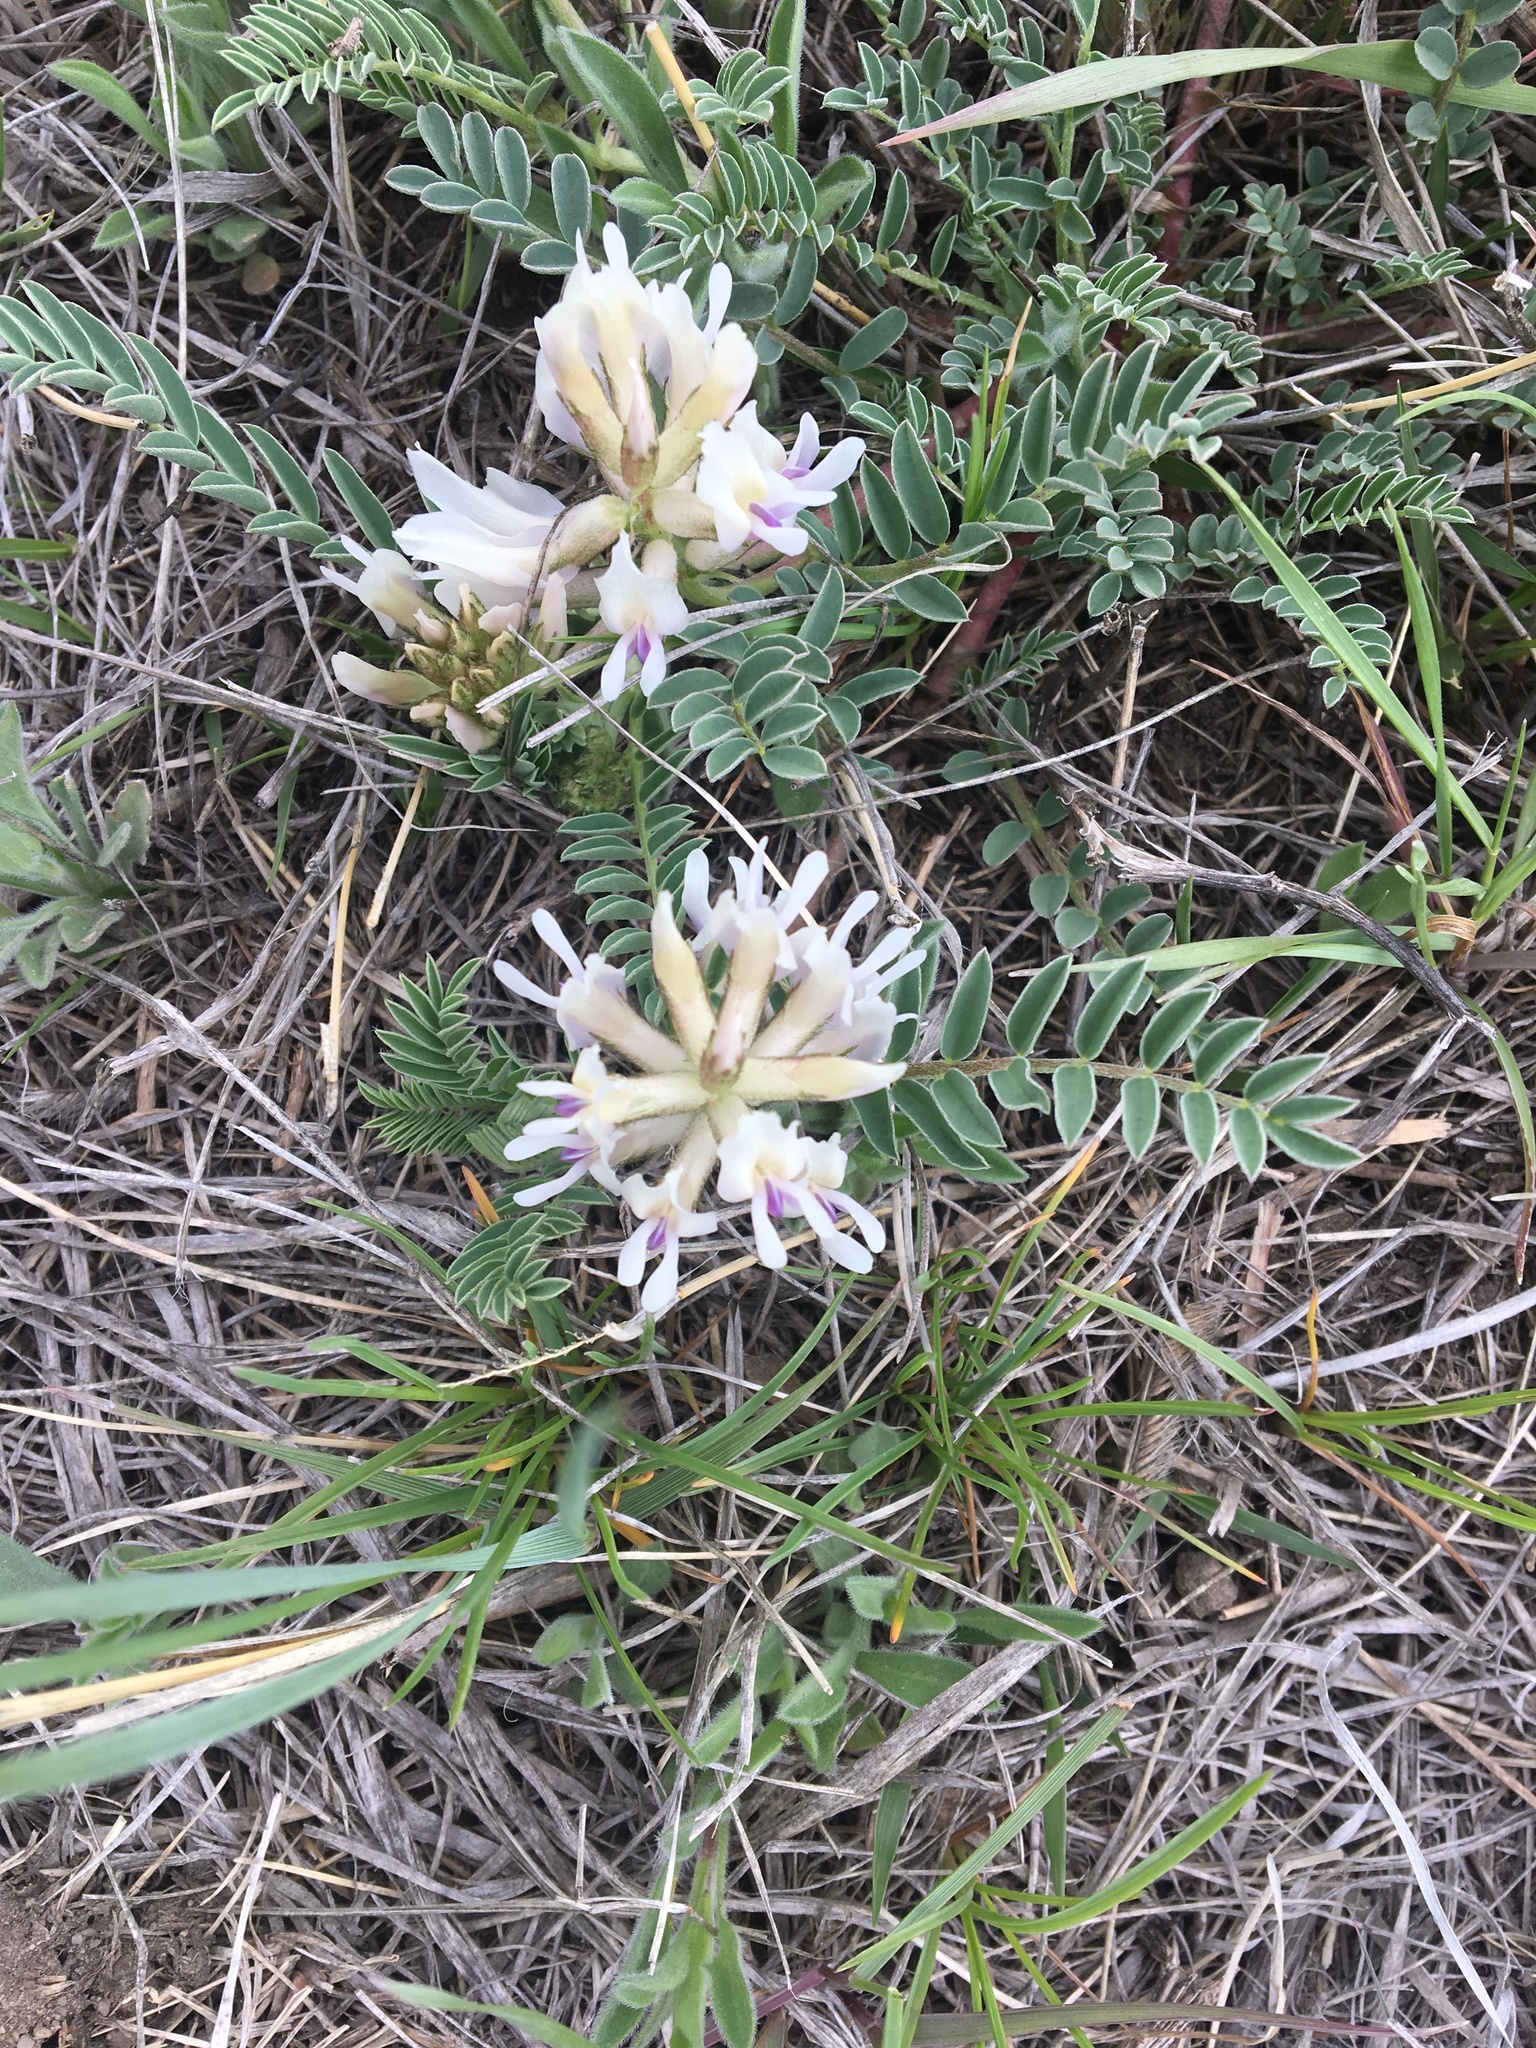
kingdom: Plantae
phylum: Tracheophyta
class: Magnoliopsida
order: Fabales
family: Fabaceae
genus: Astragalus
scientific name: Astragalus crassicarpus
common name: Ground-plum milk-vetch
